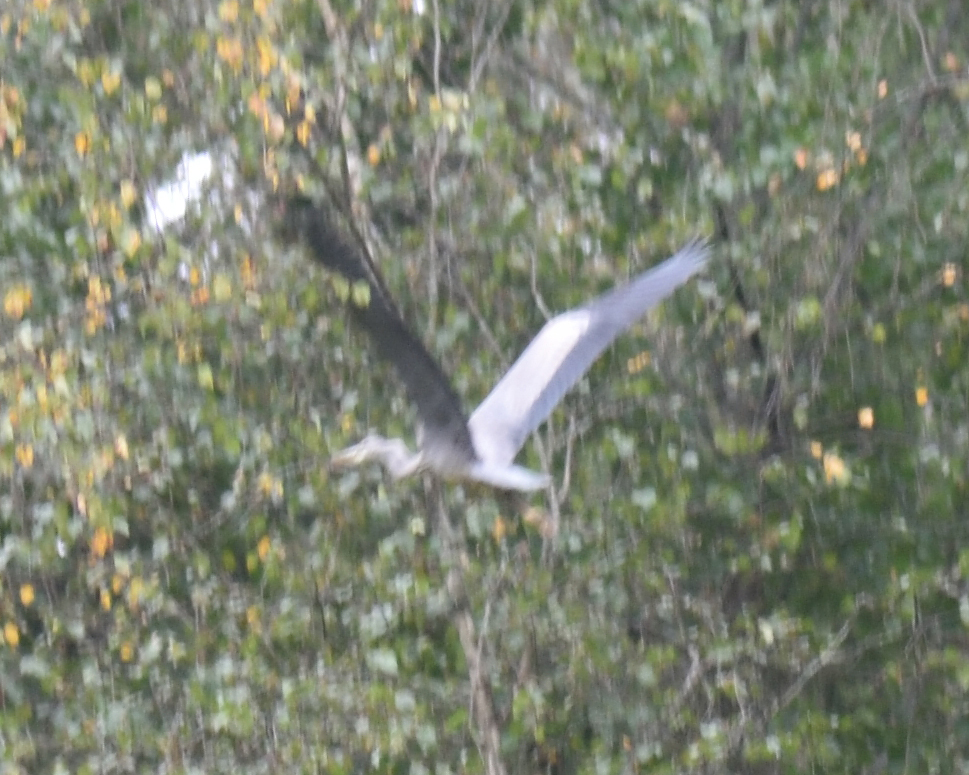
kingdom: Animalia
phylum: Chordata
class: Aves
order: Pelecaniformes
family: Ardeidae
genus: Ardea
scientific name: Ardea cinerea
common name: Grey heron
